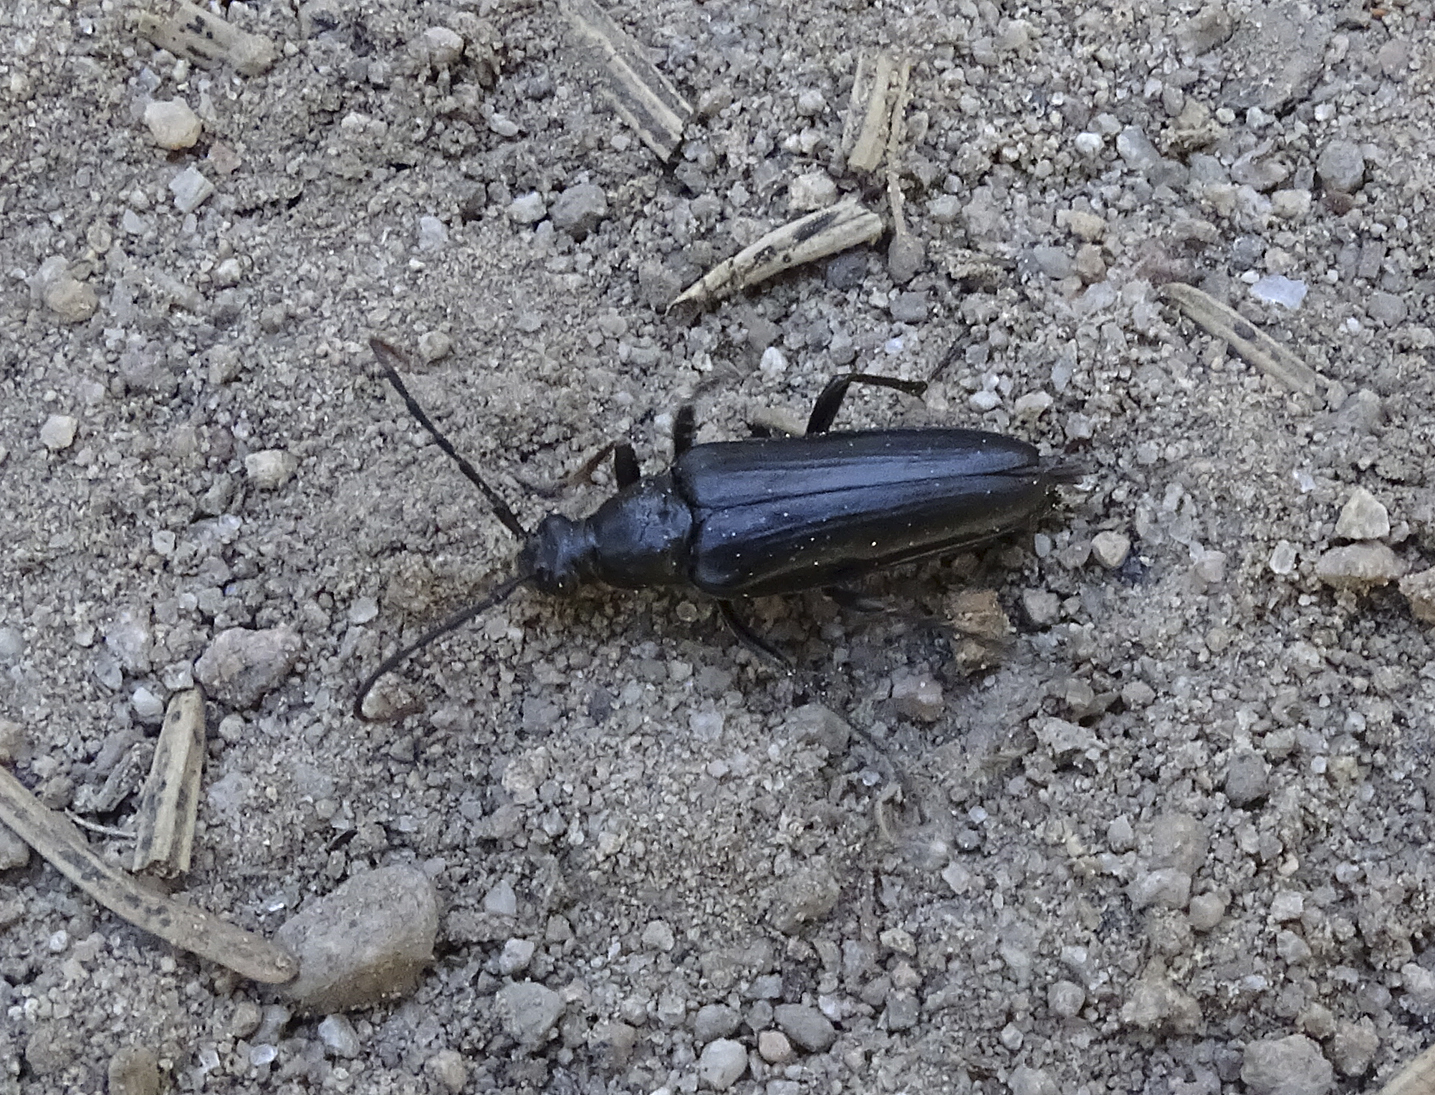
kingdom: Animalia
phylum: Arthropoda
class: Insecta
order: Coleoptera
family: Cerambycidae
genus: Etorofus
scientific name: Etorofus
